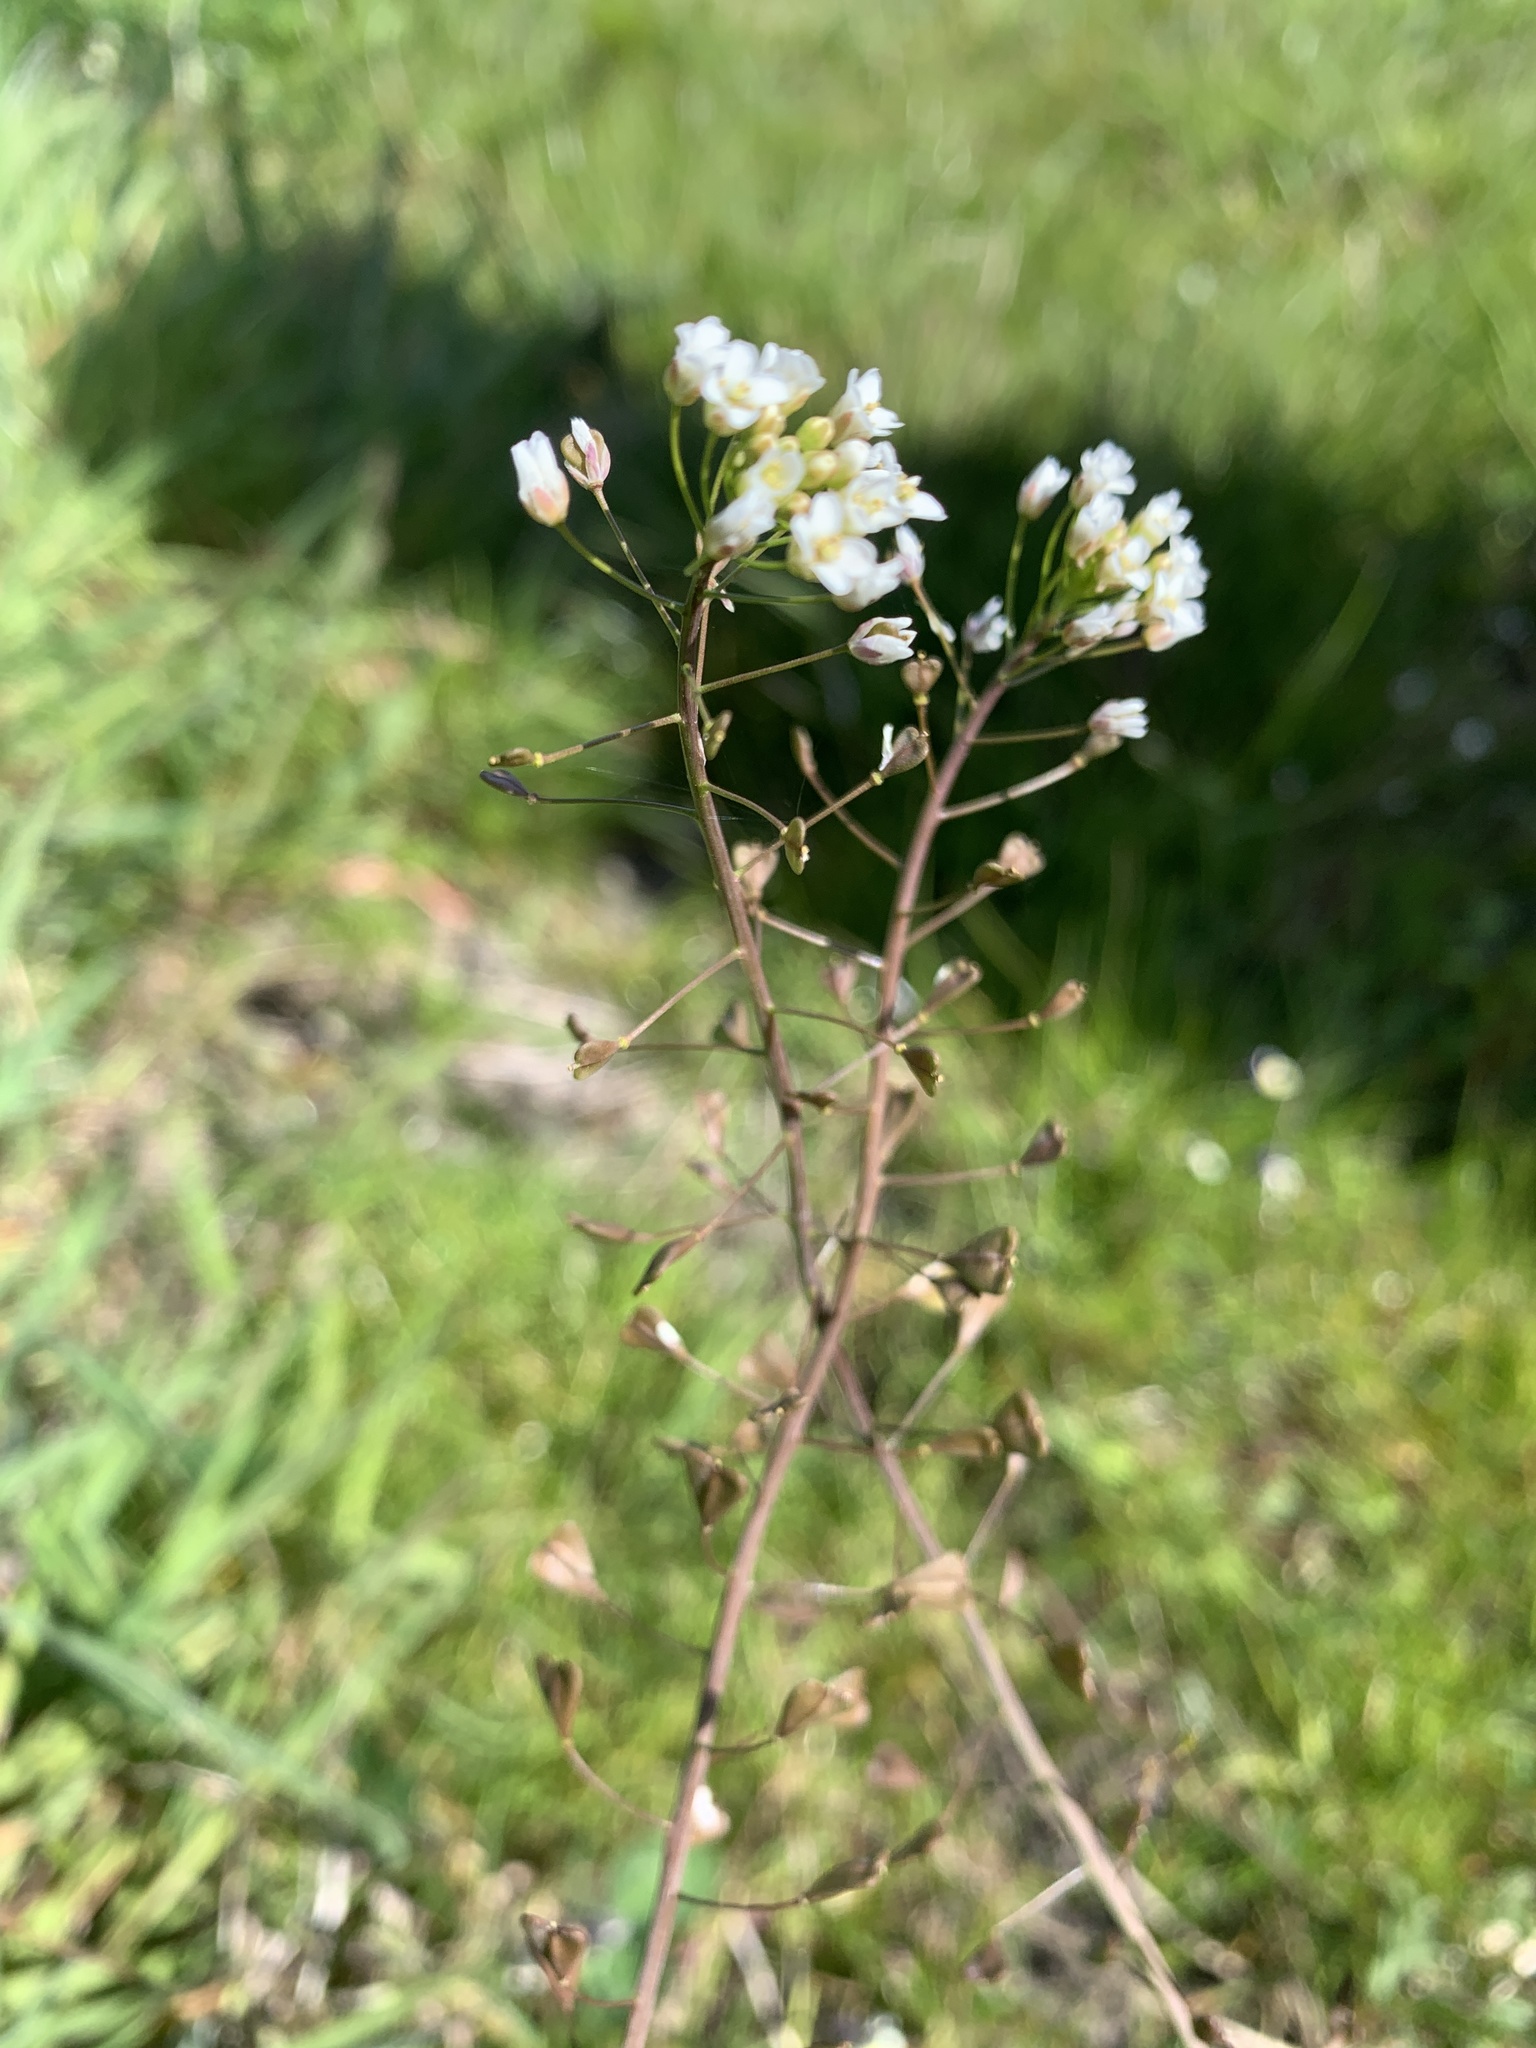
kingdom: Plantae
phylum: Tracheophyta
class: Magnoliopsida
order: Brassicales
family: Brassicaceae
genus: Capsella
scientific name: Capsella bursa-pastoris
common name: Shepherd's purse
